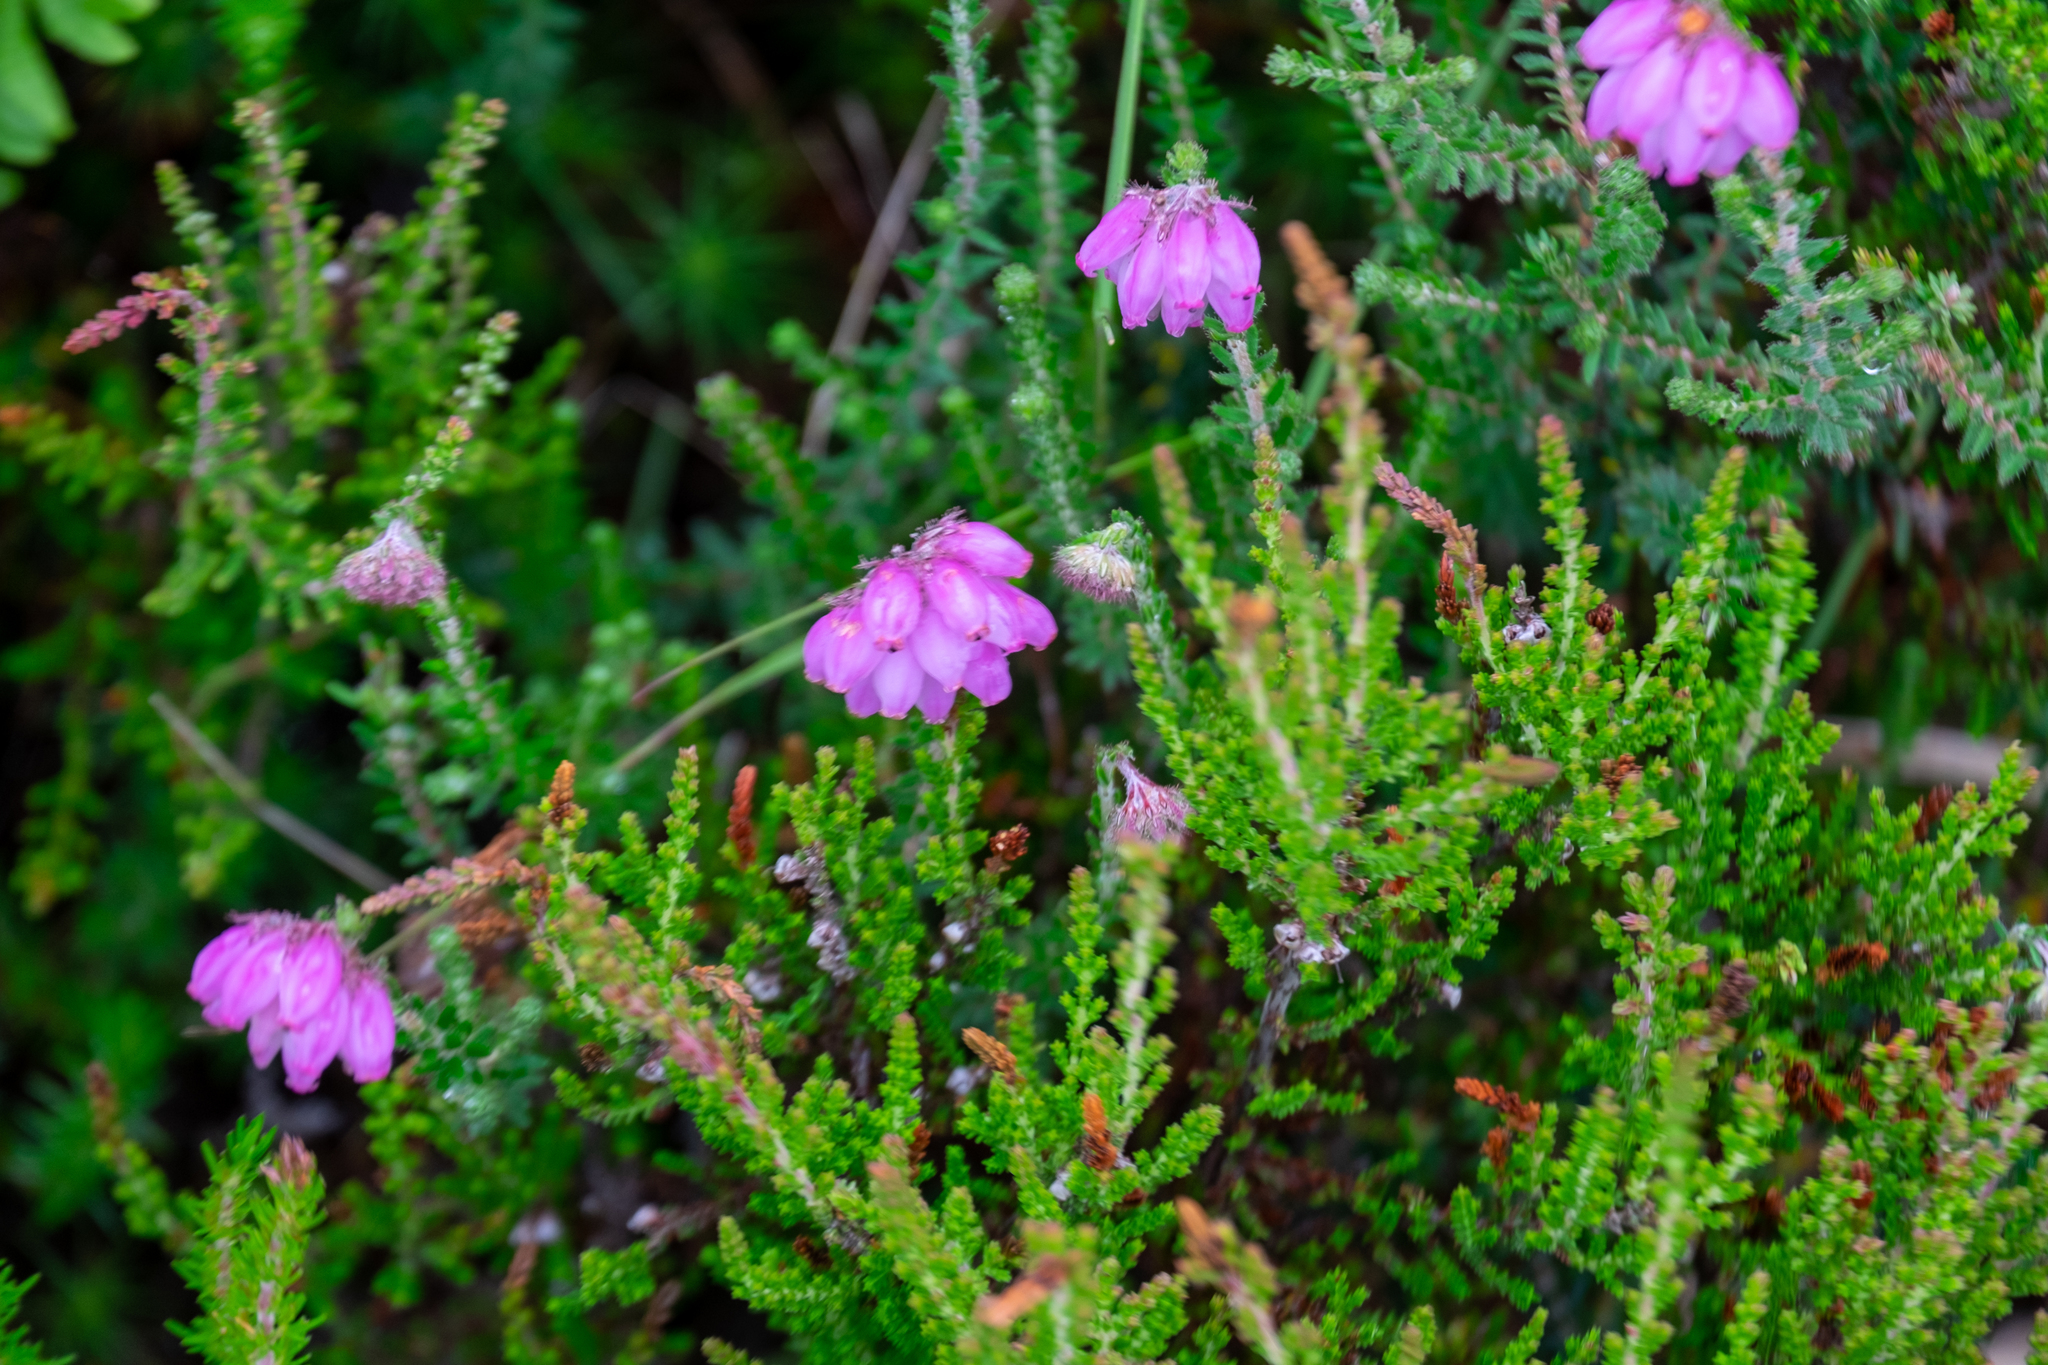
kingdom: Plantae
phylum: Tracheophyta
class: Magnoliopsida
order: Ericales
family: Ericaceae
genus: Calluna
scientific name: Calluna vulgaris
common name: Heather
